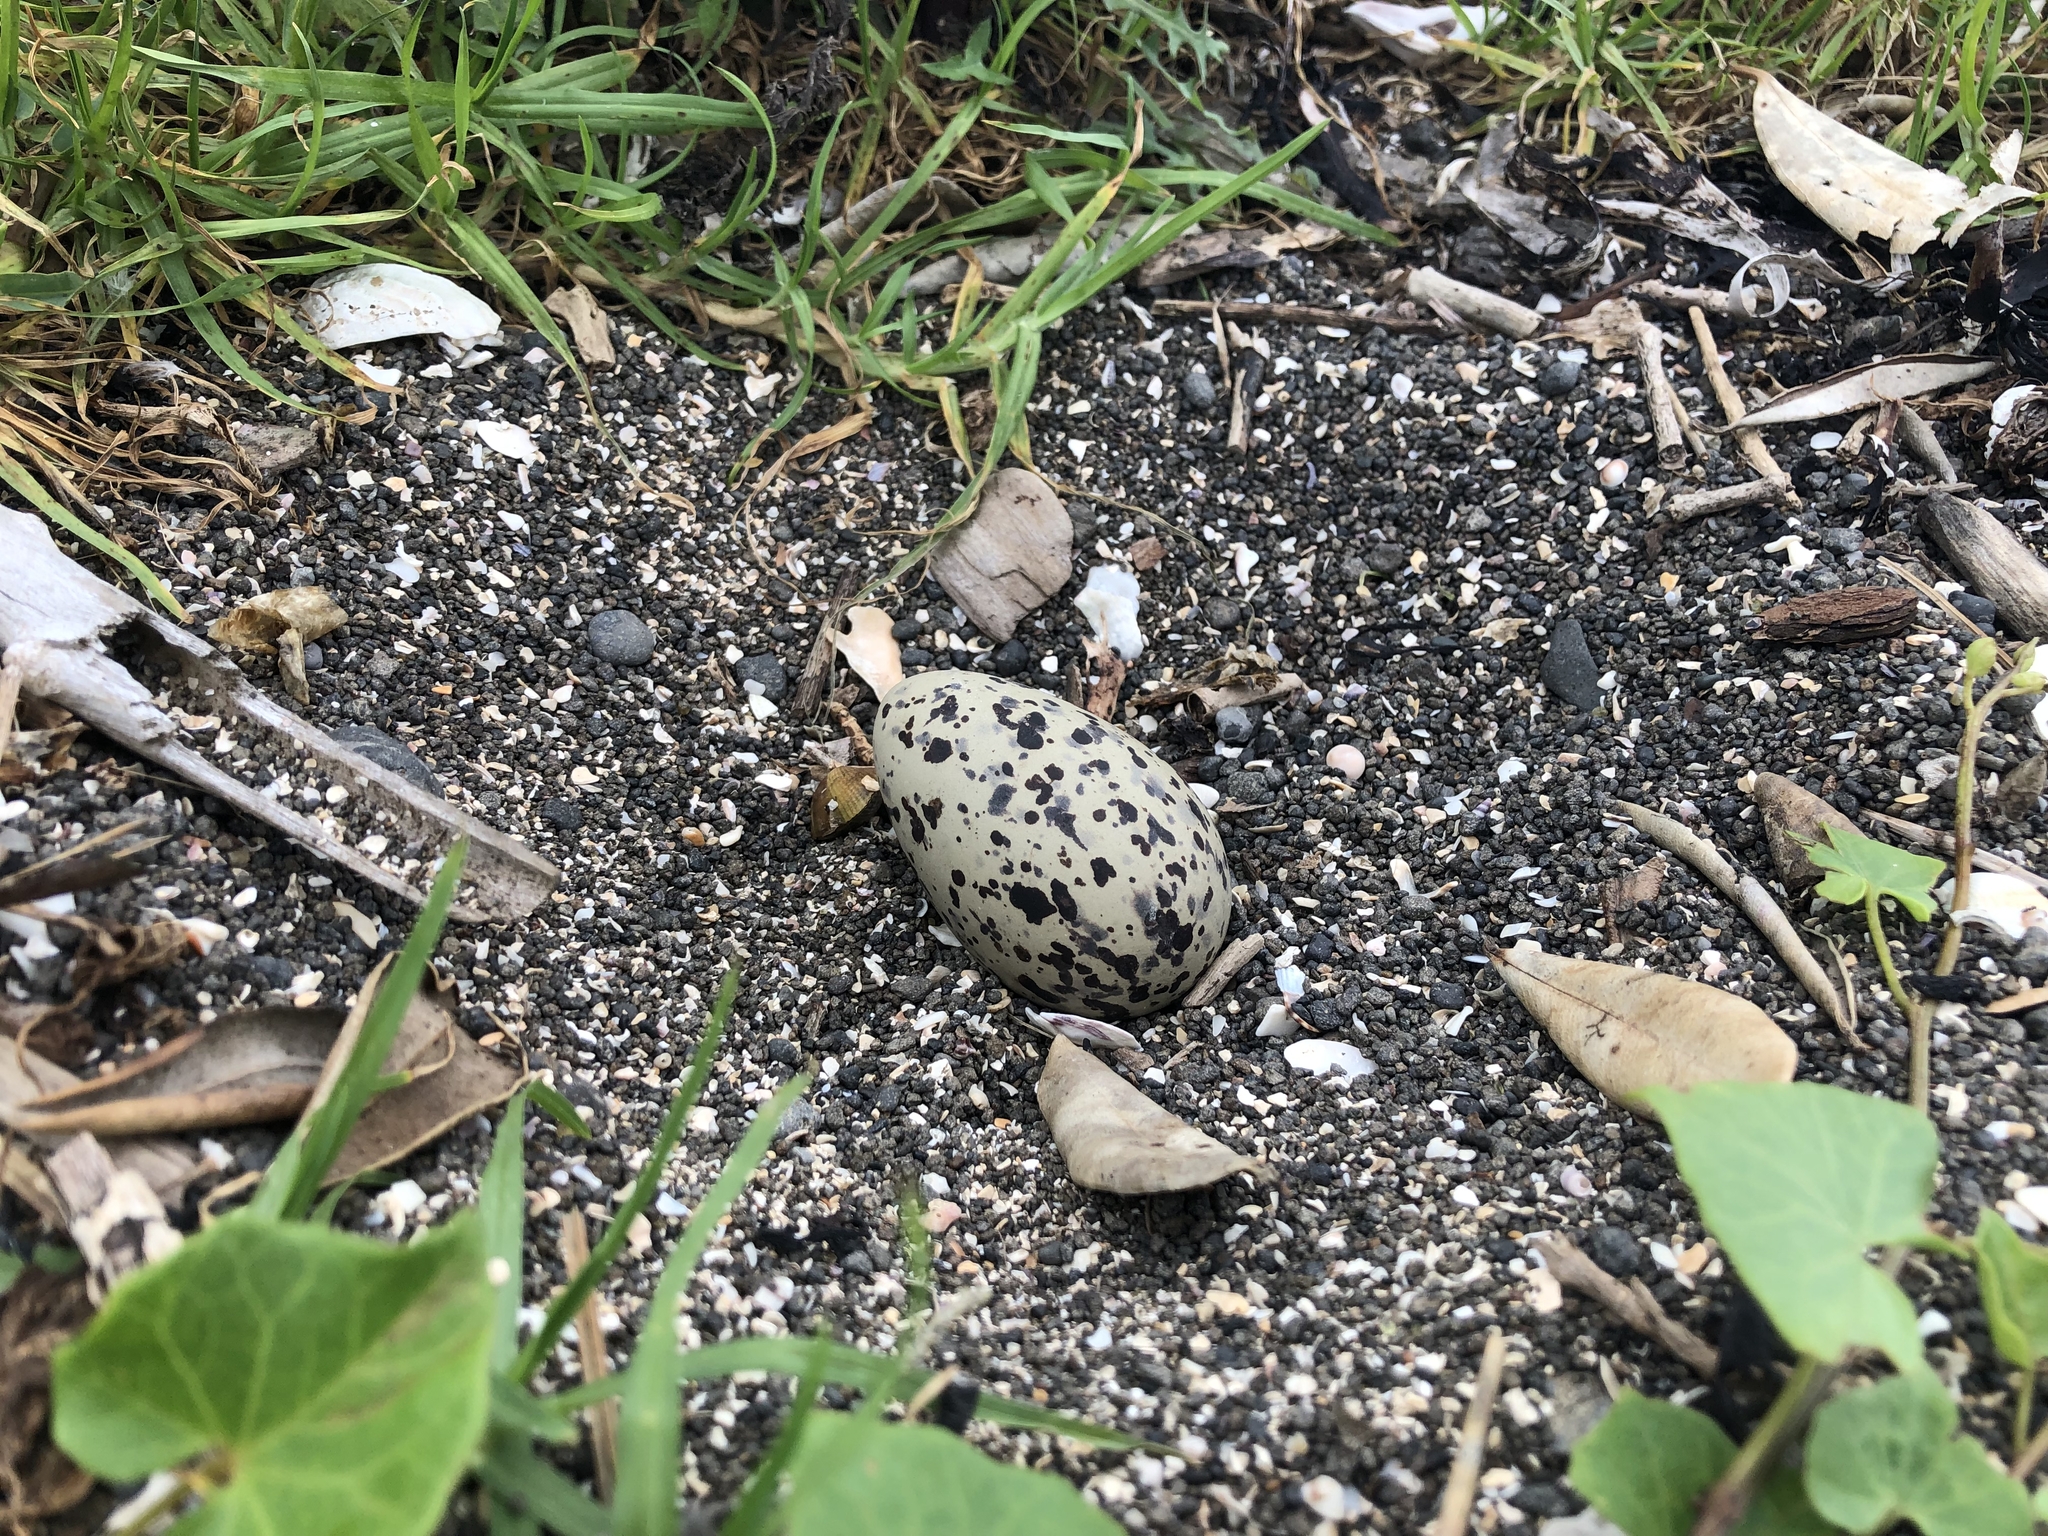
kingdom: Animalia
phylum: Chordata
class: Aves
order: Charadriiformes
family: Haematopodidae
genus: Haematopus
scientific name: Haematopus unicolor
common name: Variable oystercatcher
